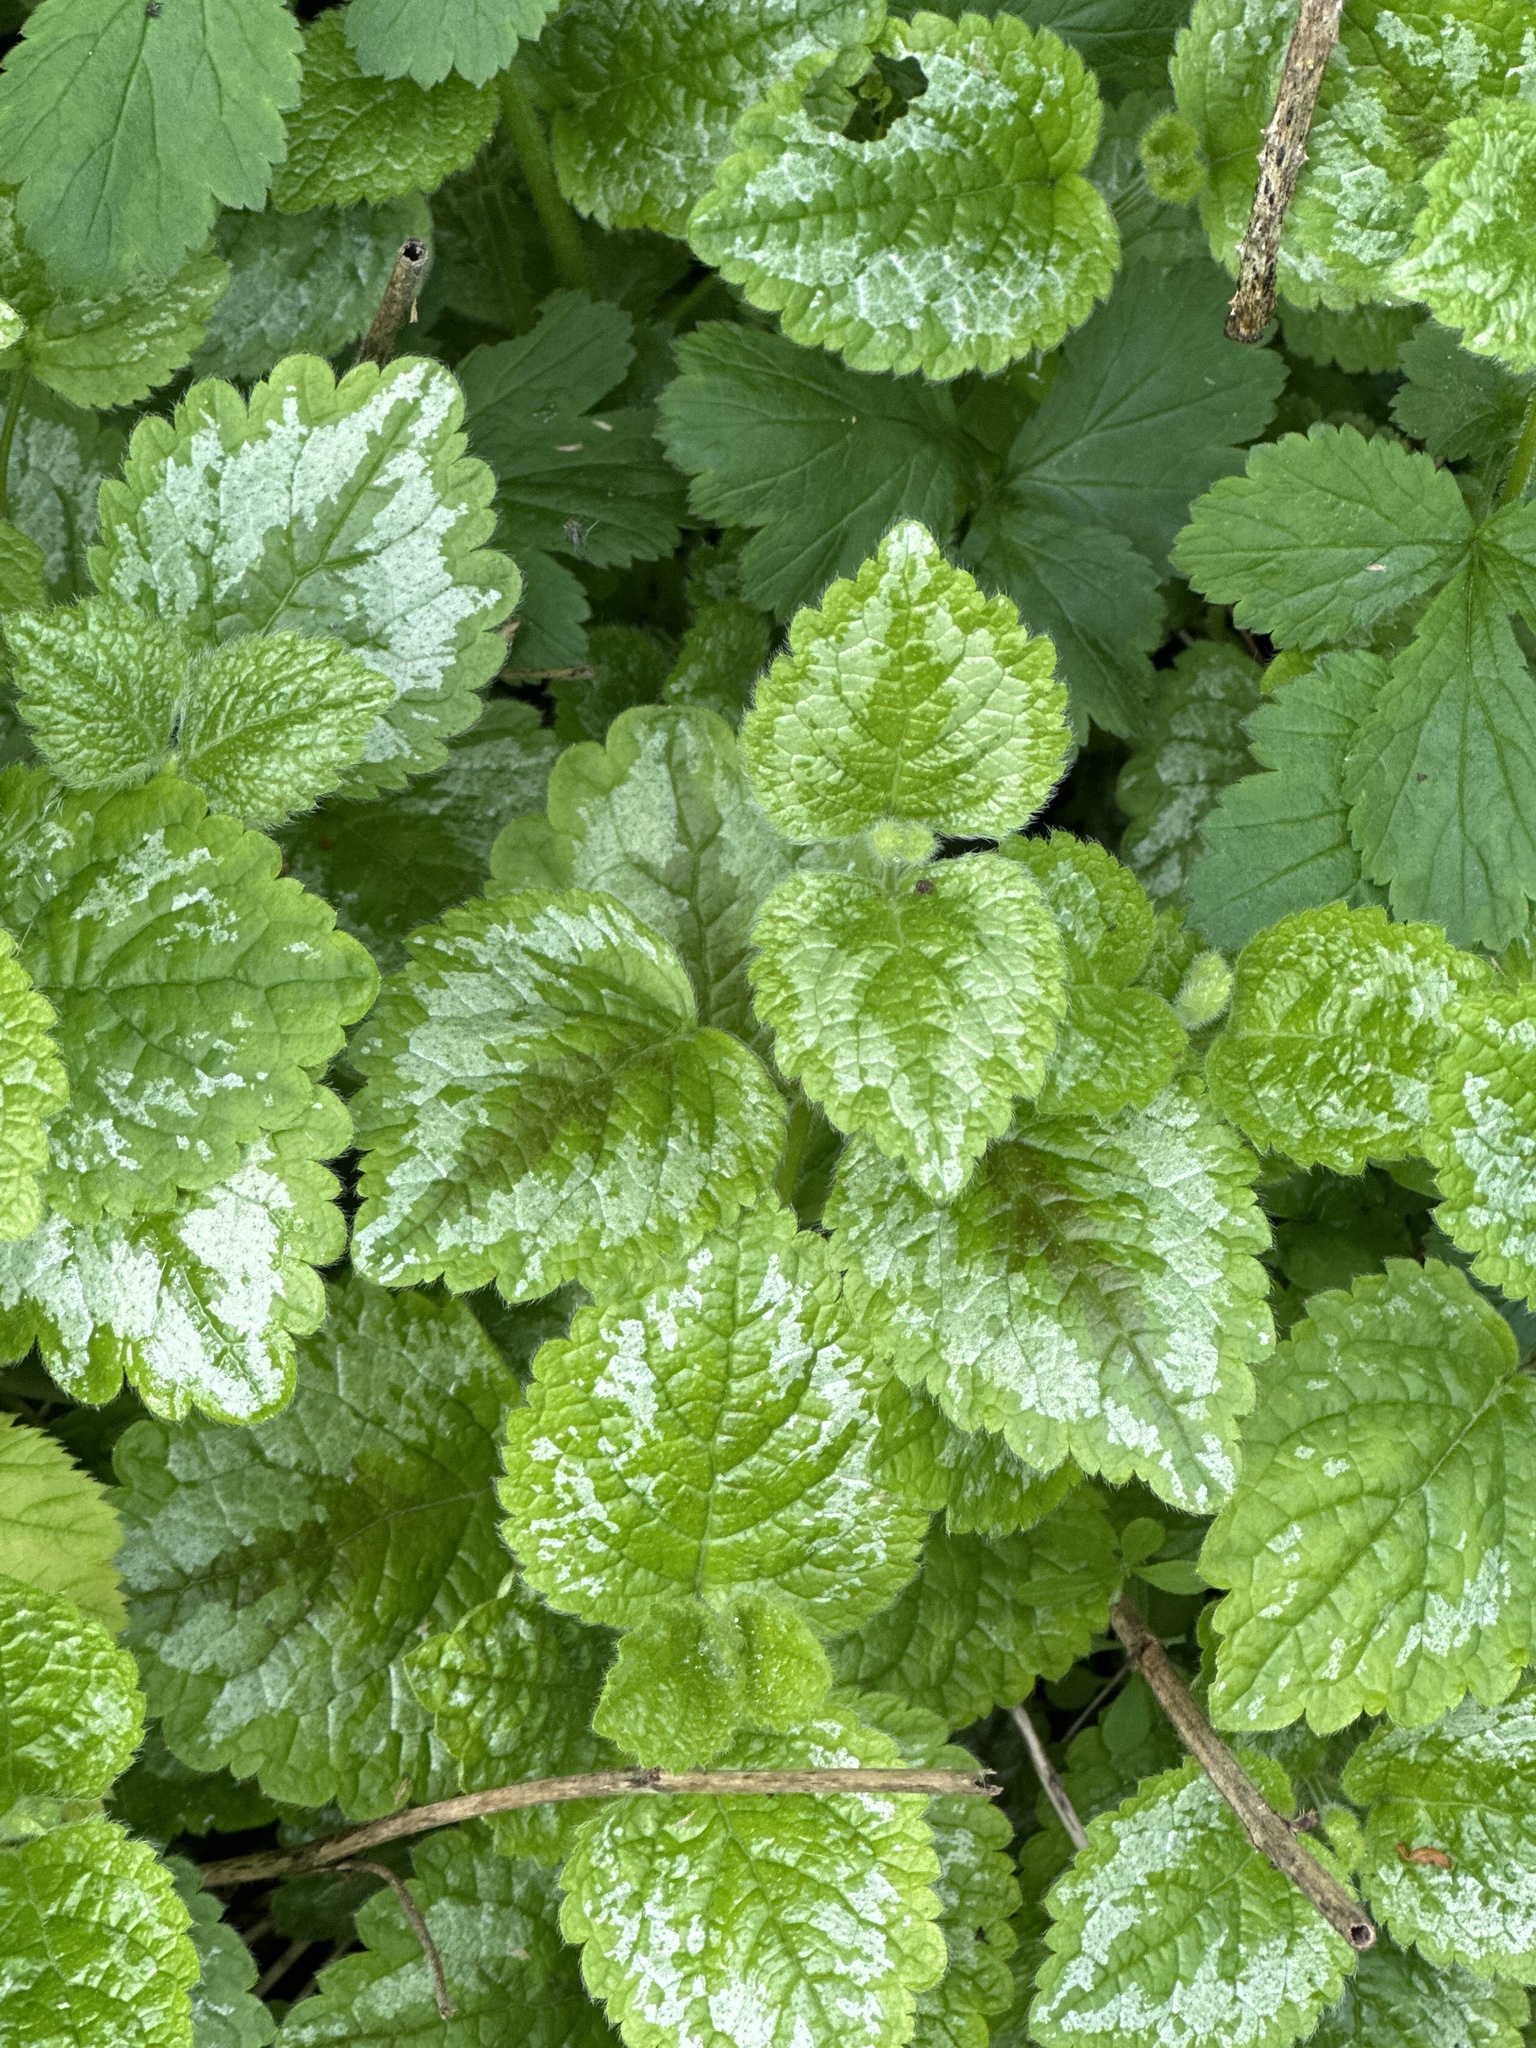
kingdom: Plantae
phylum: Tracheophyta
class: Magnoliopsida
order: Lamiales
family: Lamiaceae
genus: Lamium
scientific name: Lamium galeobdolon
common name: Yellow archangel
